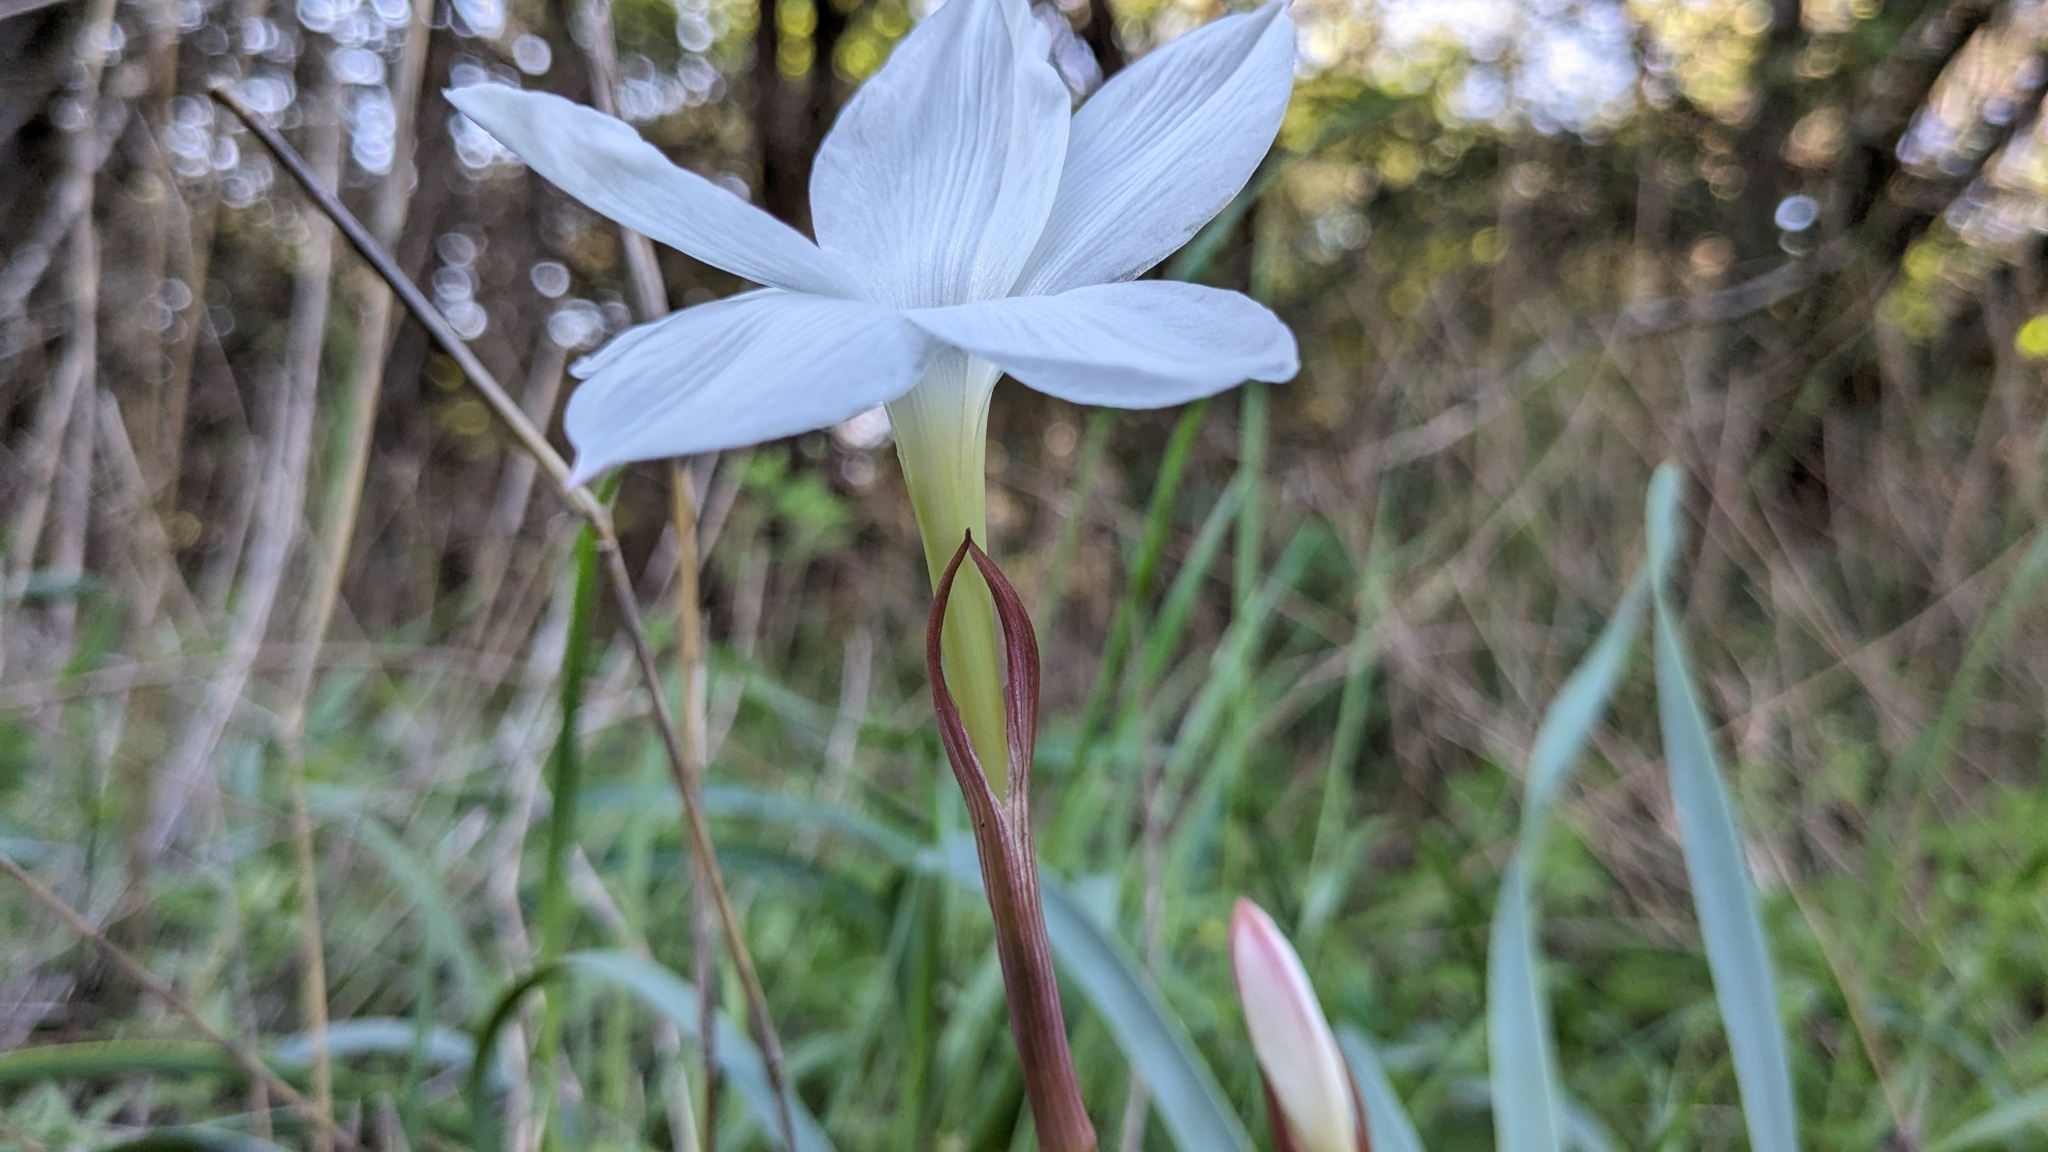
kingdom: Plantae
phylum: Tracheophyta
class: Liliopsida
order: Asparagales
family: Amaryllidaceae
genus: Zephyranthes
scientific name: Zephyranthes drummondii
